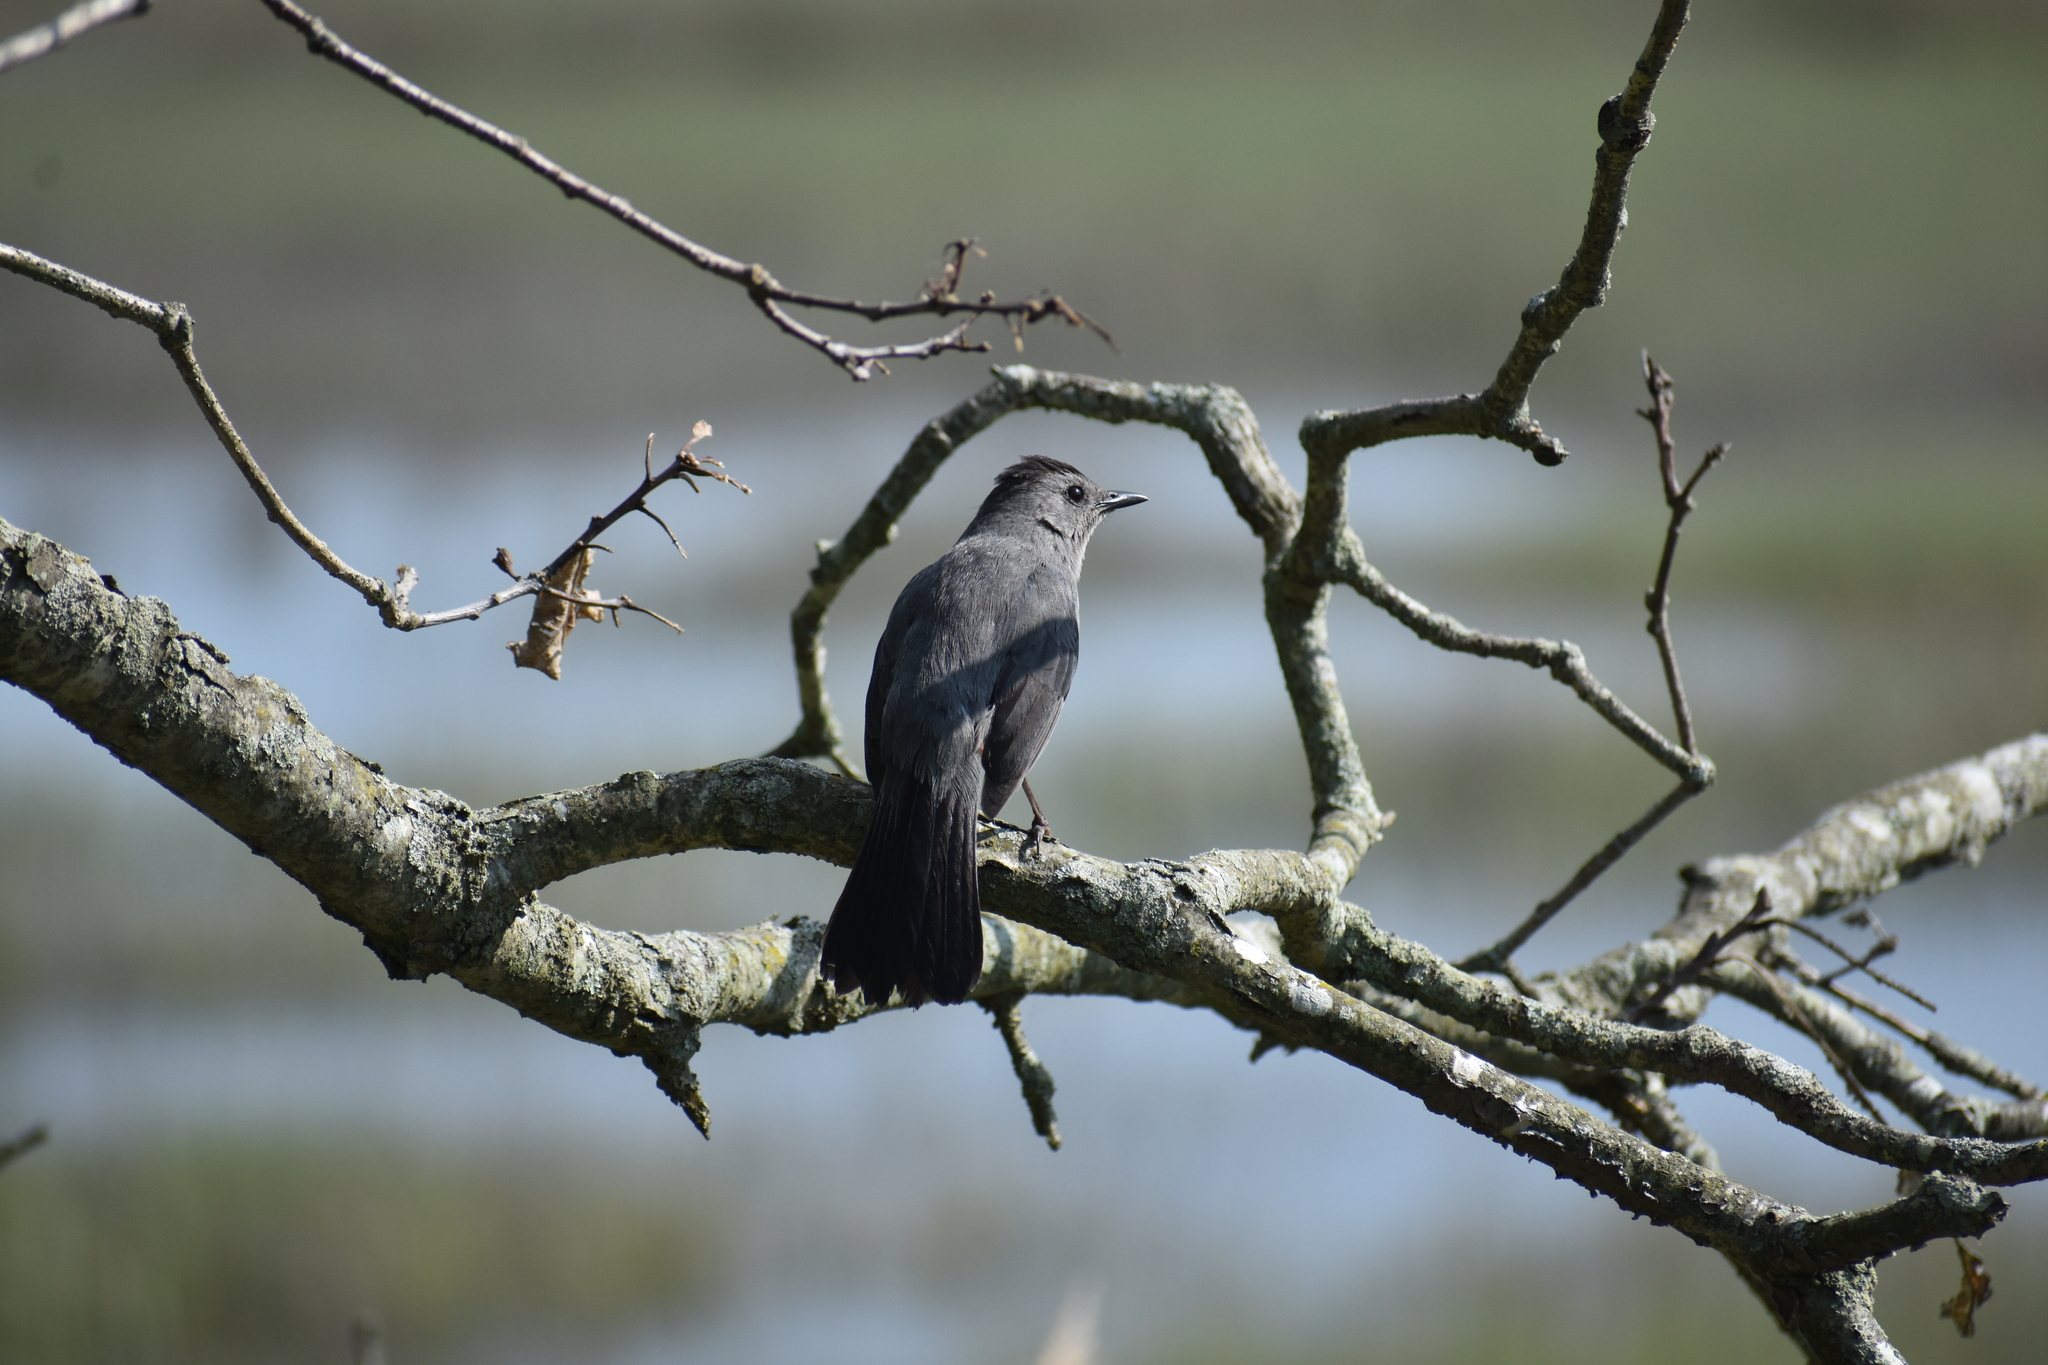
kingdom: Animalia
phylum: Chordata
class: Aves
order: Passeriformes
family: Mimidae
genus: Dumetella
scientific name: Dumetella carolinensis
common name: Gray catbird
